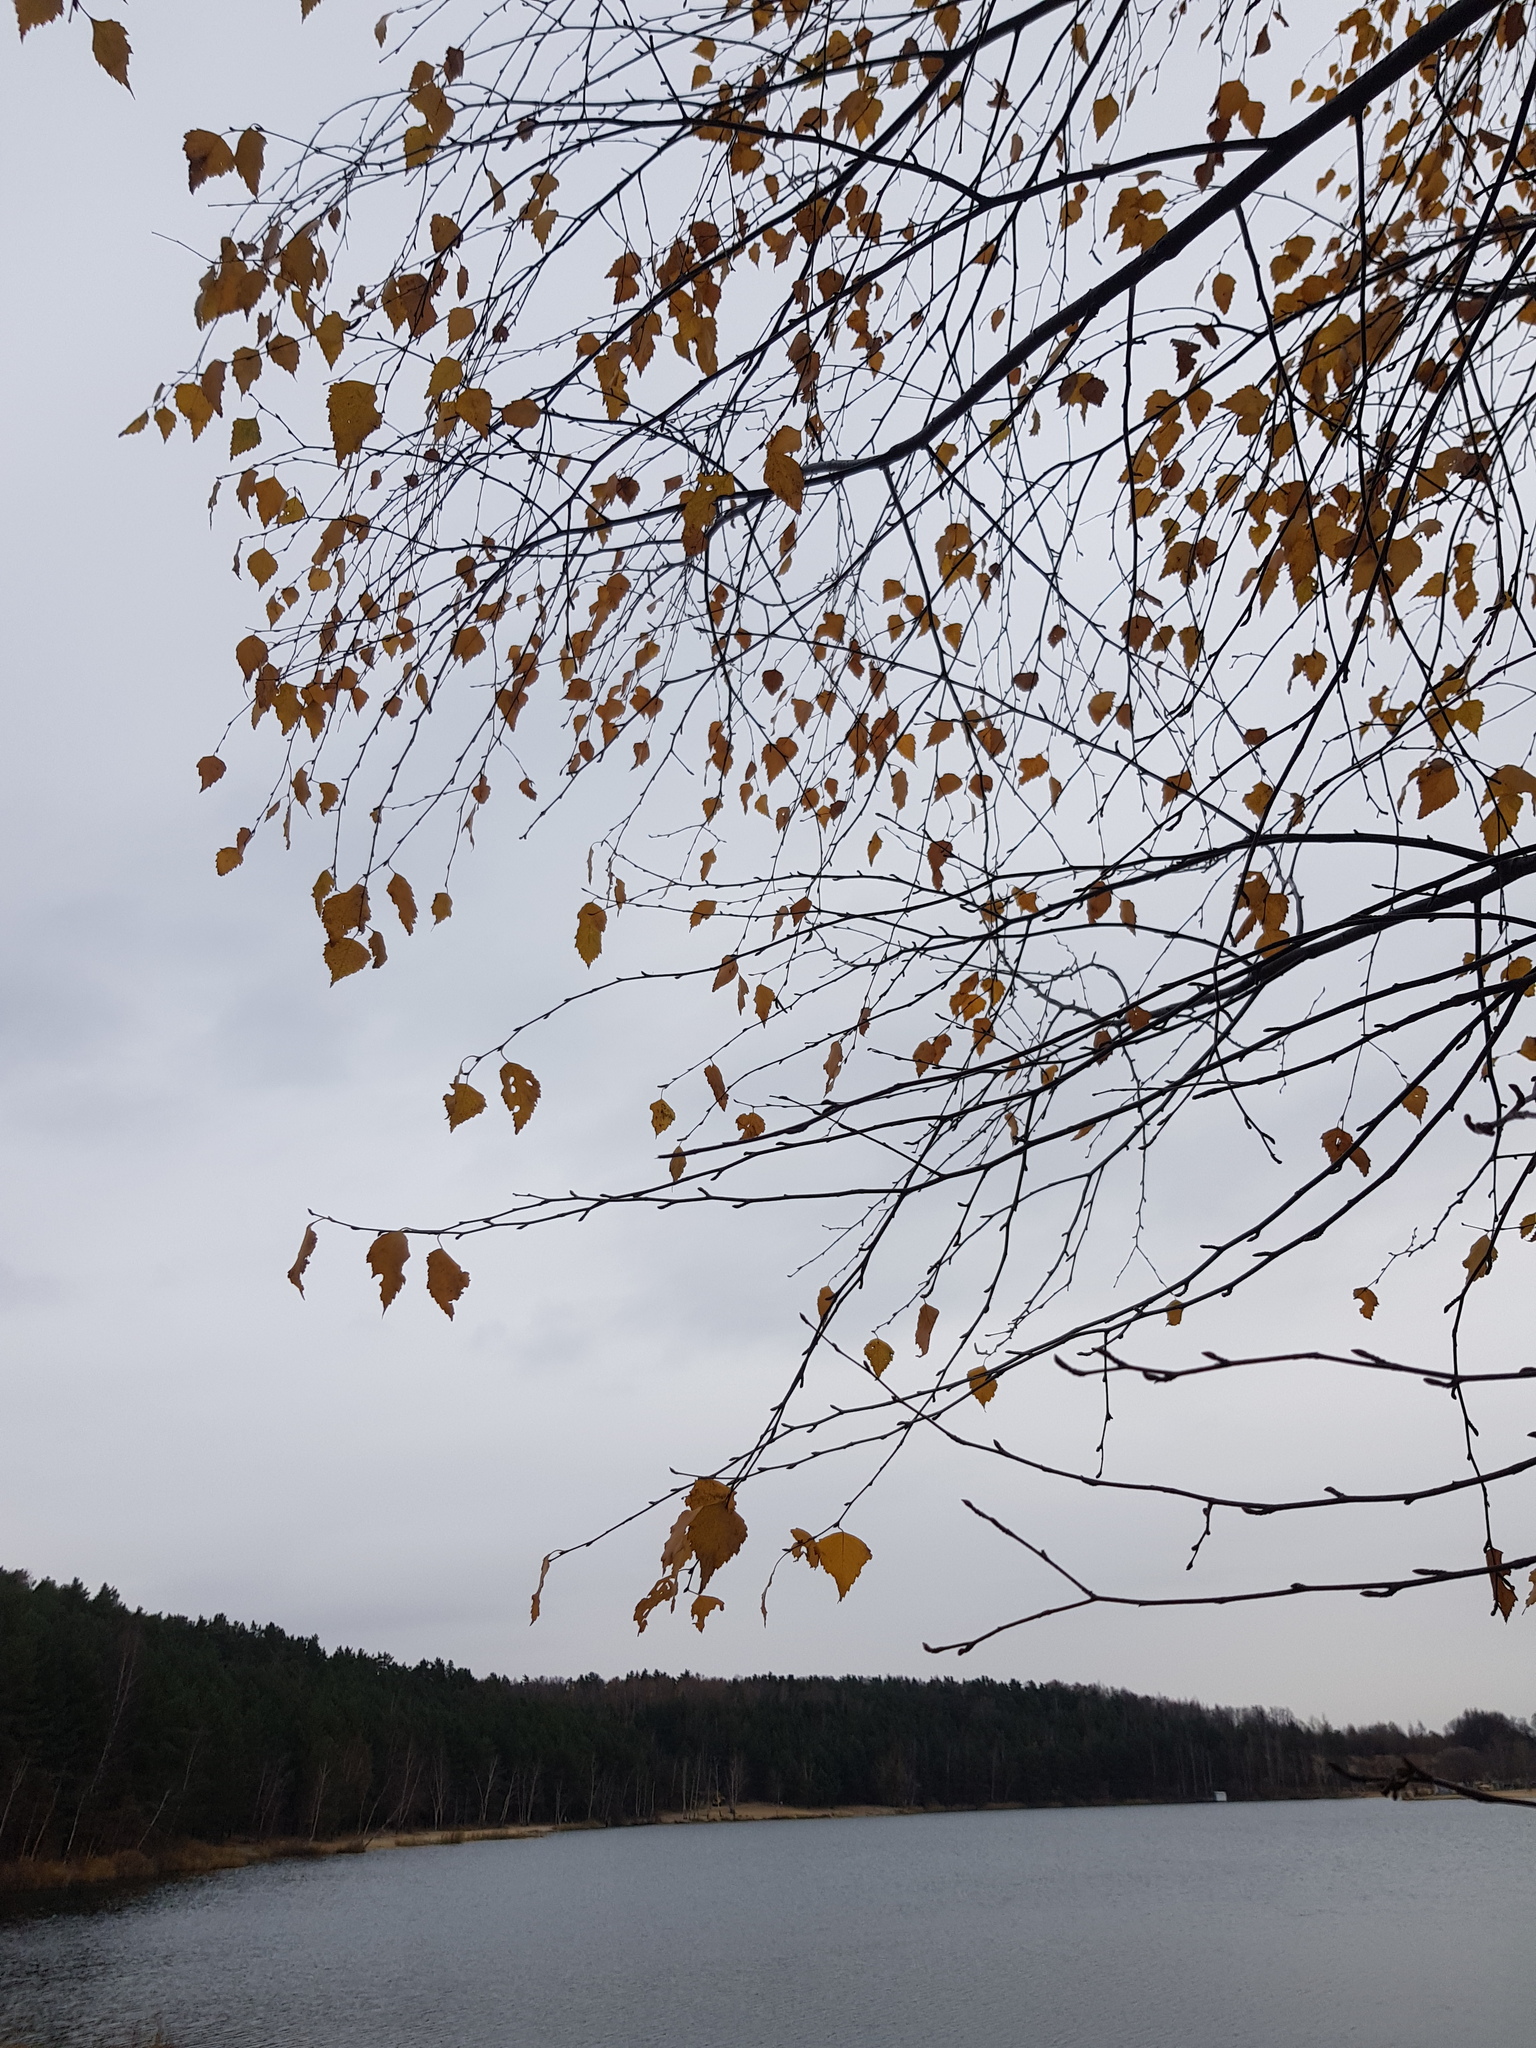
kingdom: Plantae
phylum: Tracheophyta
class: Magnoliopsida
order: Fagales
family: Betulaceae
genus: Betula
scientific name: Betula pendula
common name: Silver birch
